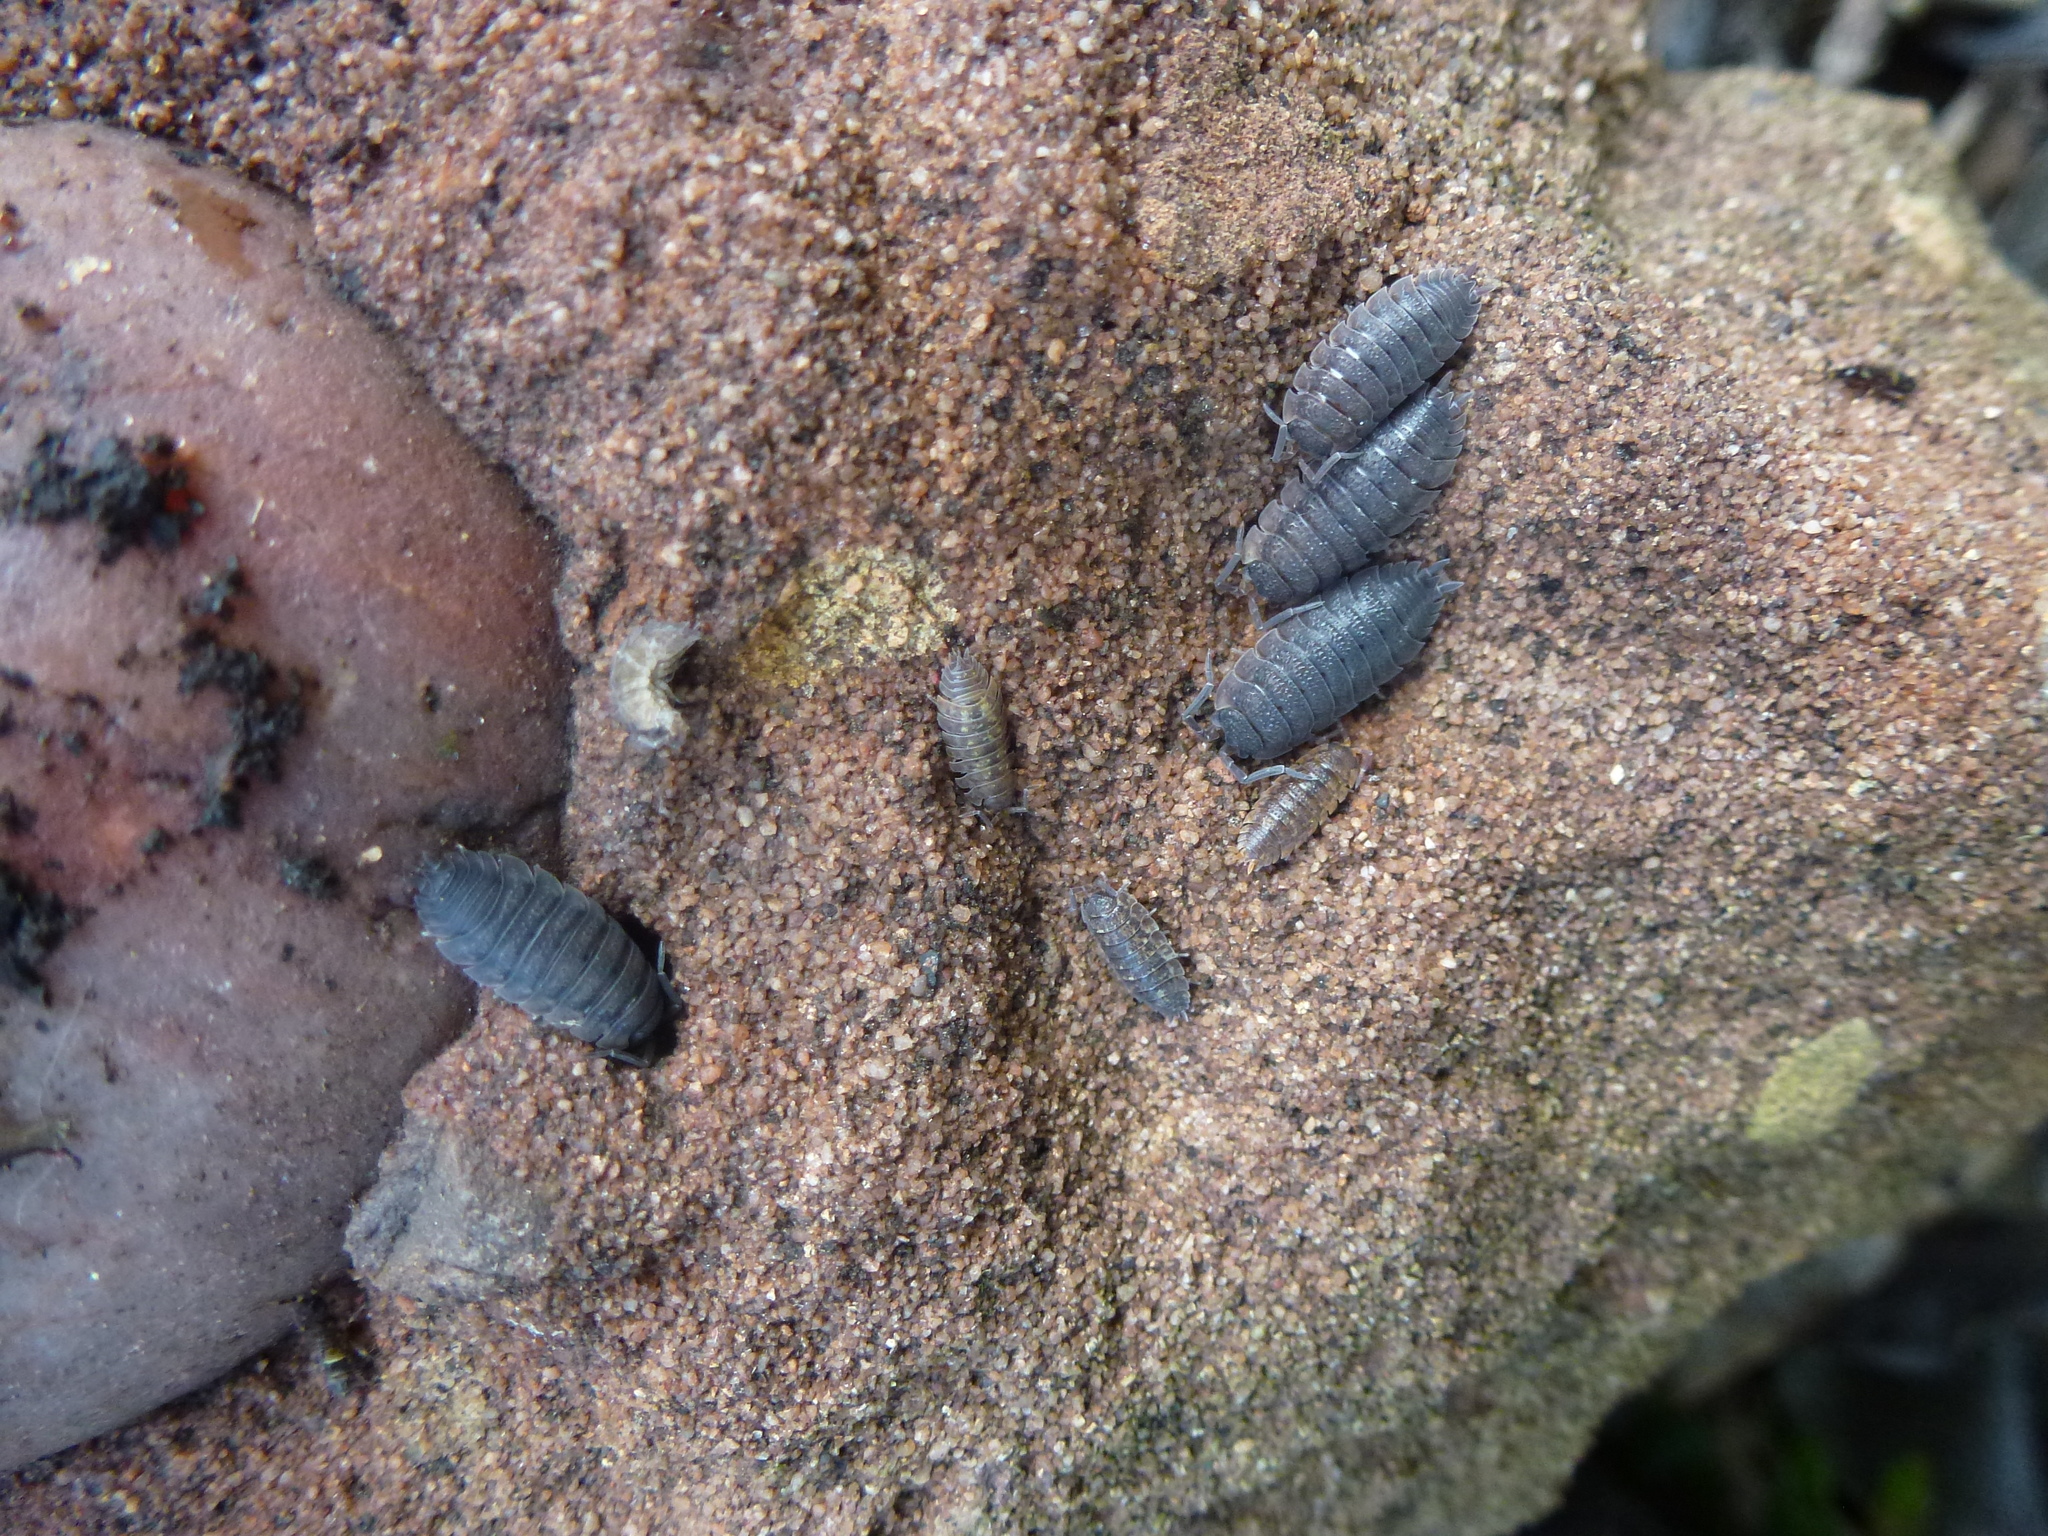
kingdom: Animalia
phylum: Arthropoda
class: Malacostraca
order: Isopoda
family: Porcellionidae
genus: Porcellio
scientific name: Porcellio scaber
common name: Common rough woodlouse
